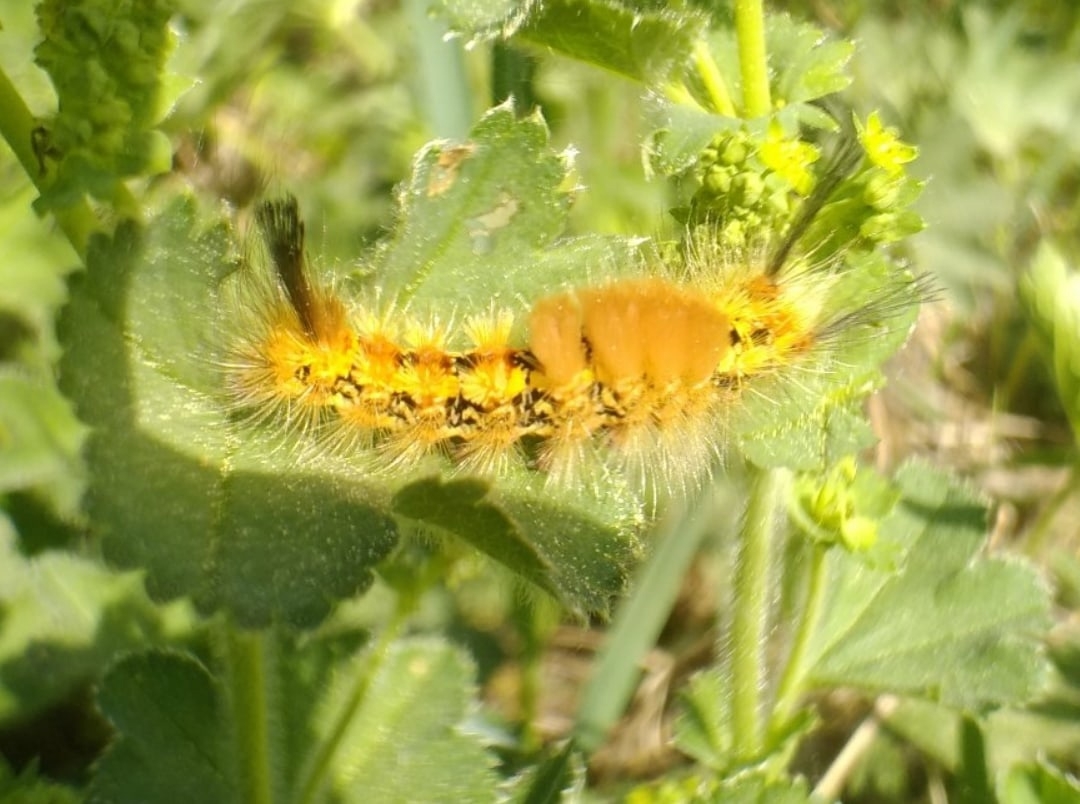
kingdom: Animalia
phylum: Arthropoda
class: Insecta
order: Lepidoptera
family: Erebidae
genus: Orgyia
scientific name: Orgyia recens
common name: Scarce vapourer
